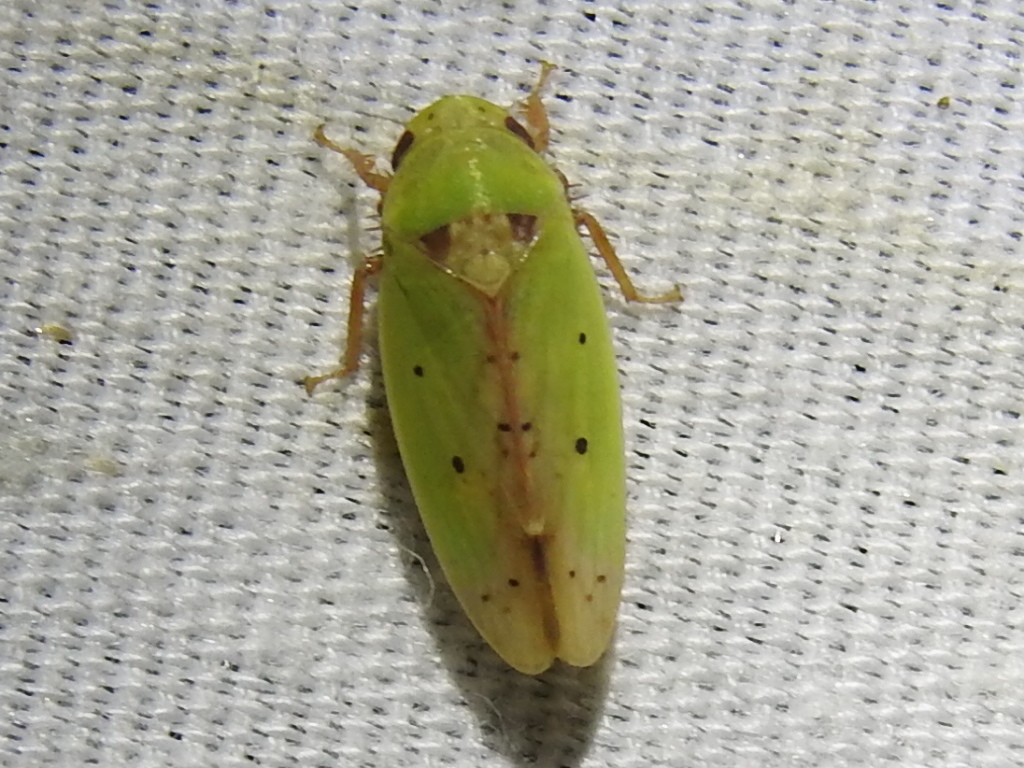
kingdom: Animalia
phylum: Arthropoda
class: Insecta
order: Hemiptera
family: Cicadellidae
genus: Ponana
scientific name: Ponana
